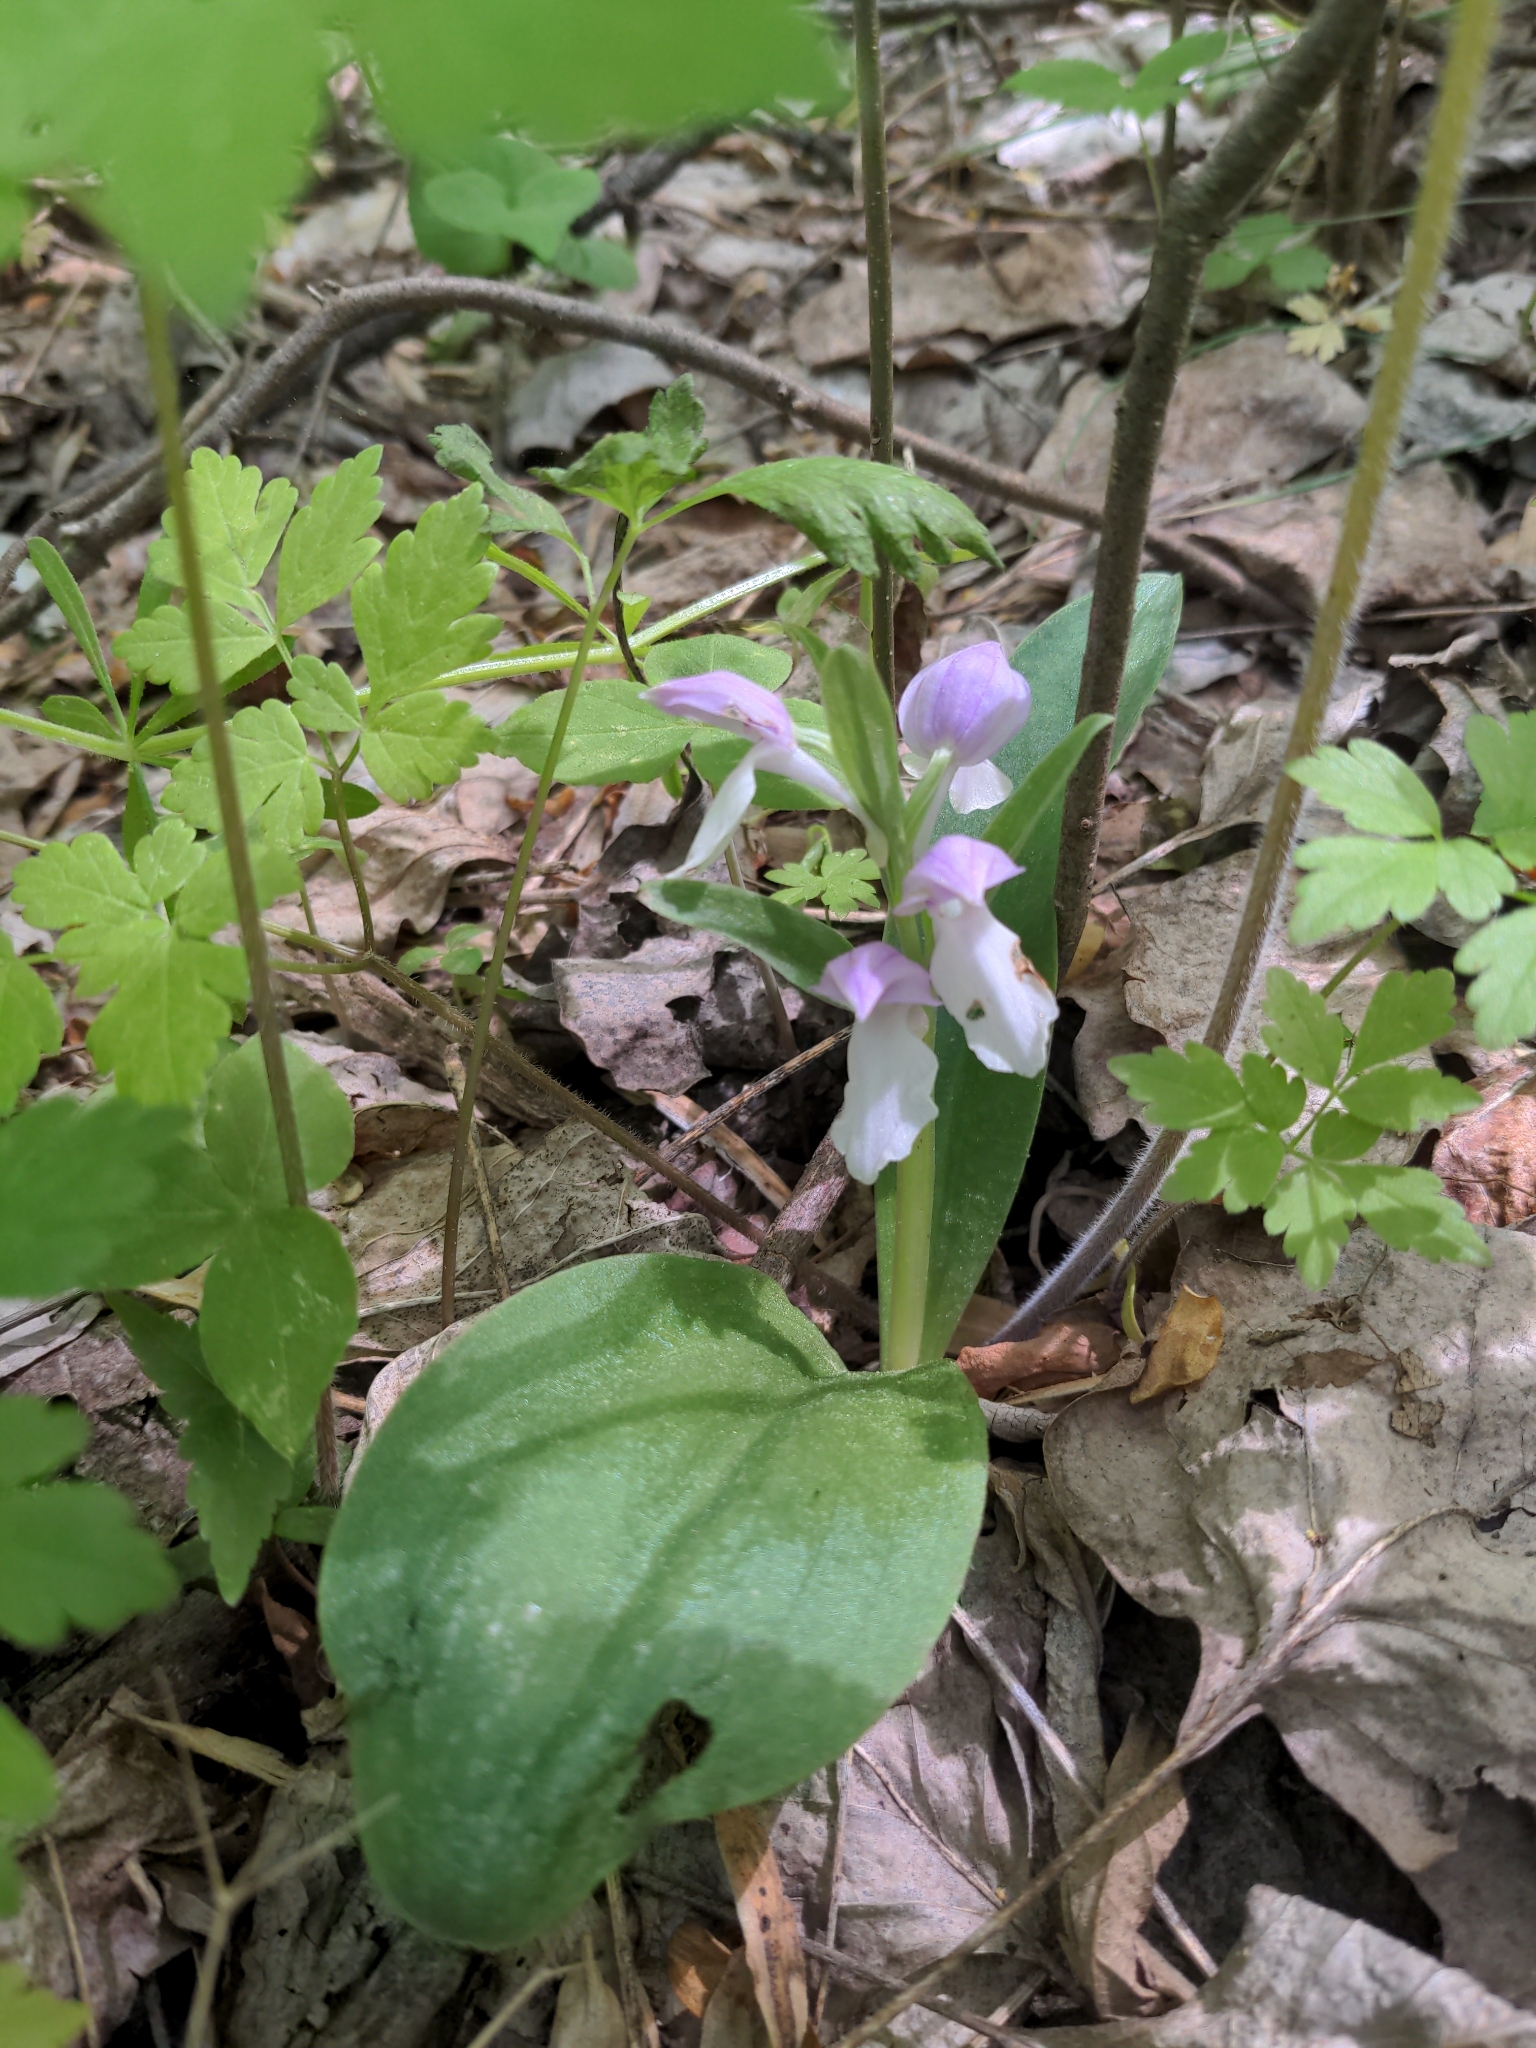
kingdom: Plantae
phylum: Tracheophyta
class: Liliopsida
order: Asparagales
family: Orchidaceae
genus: Galearis
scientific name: Galearis spectabilis
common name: Purple-hooded orchis
